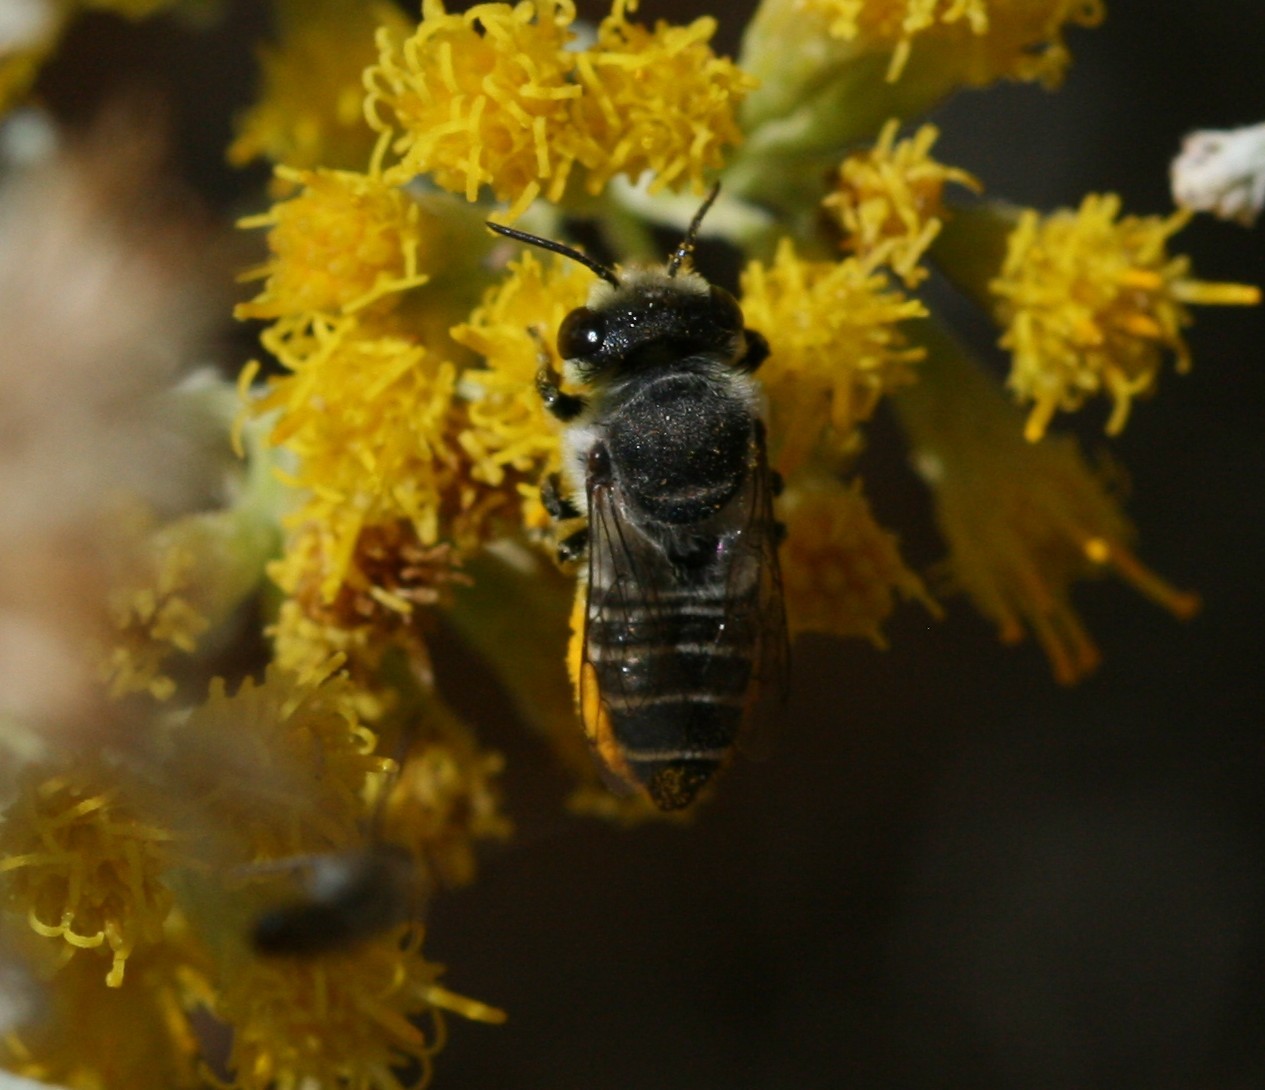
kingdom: Animalia
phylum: Arthropoda
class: Insecta
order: Hymenoptera
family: Megachilidae
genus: Megachile
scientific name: Megachile canariensis
